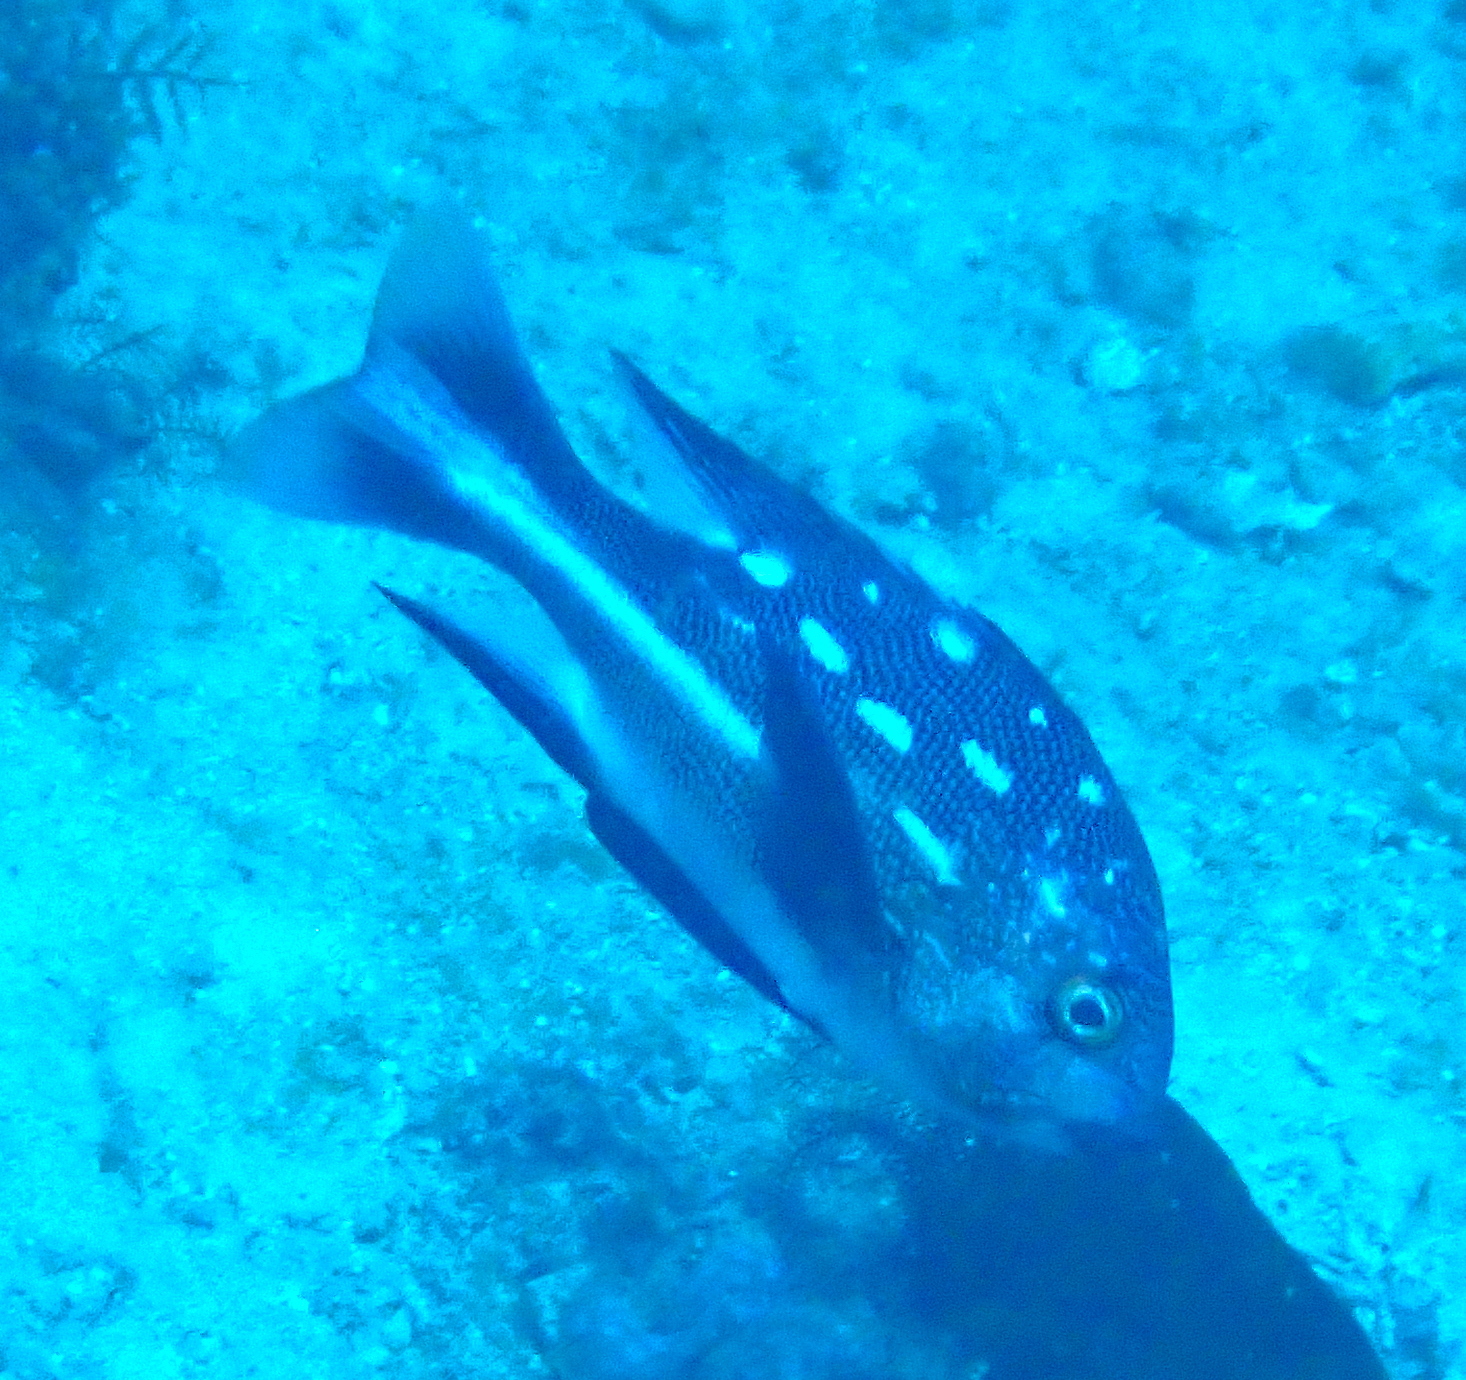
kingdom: Animalia
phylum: Chordata
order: Perciformes
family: Lutjanidae
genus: Macolor
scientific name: Macolor macularis
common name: Midnight snapper
